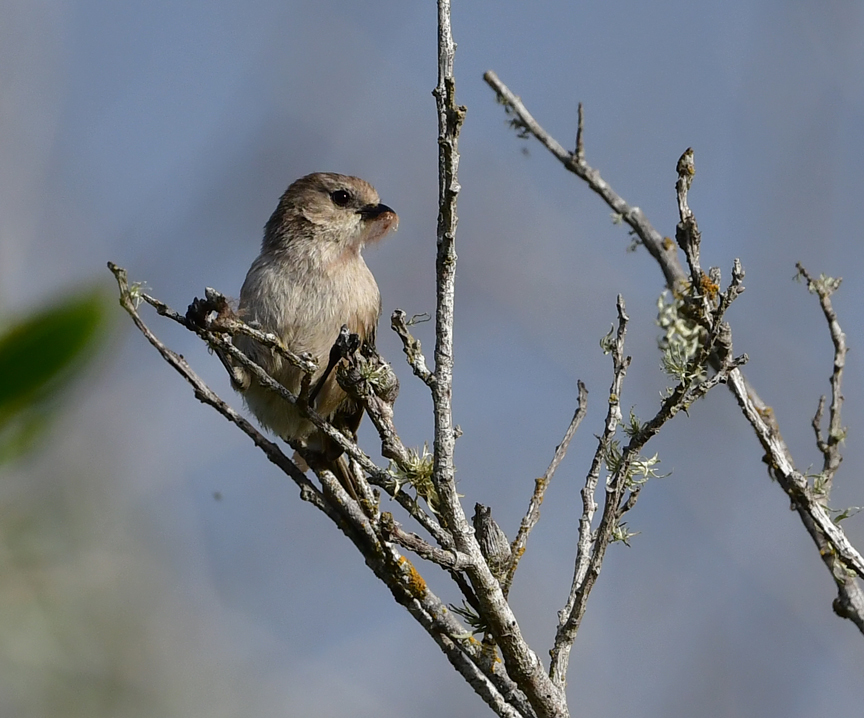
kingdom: Animalia
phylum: Chordata
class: Aves
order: Passeriformes
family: Aegithalidae
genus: Psaltriparus
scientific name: Psaltriparus minimus
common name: American bushtit
